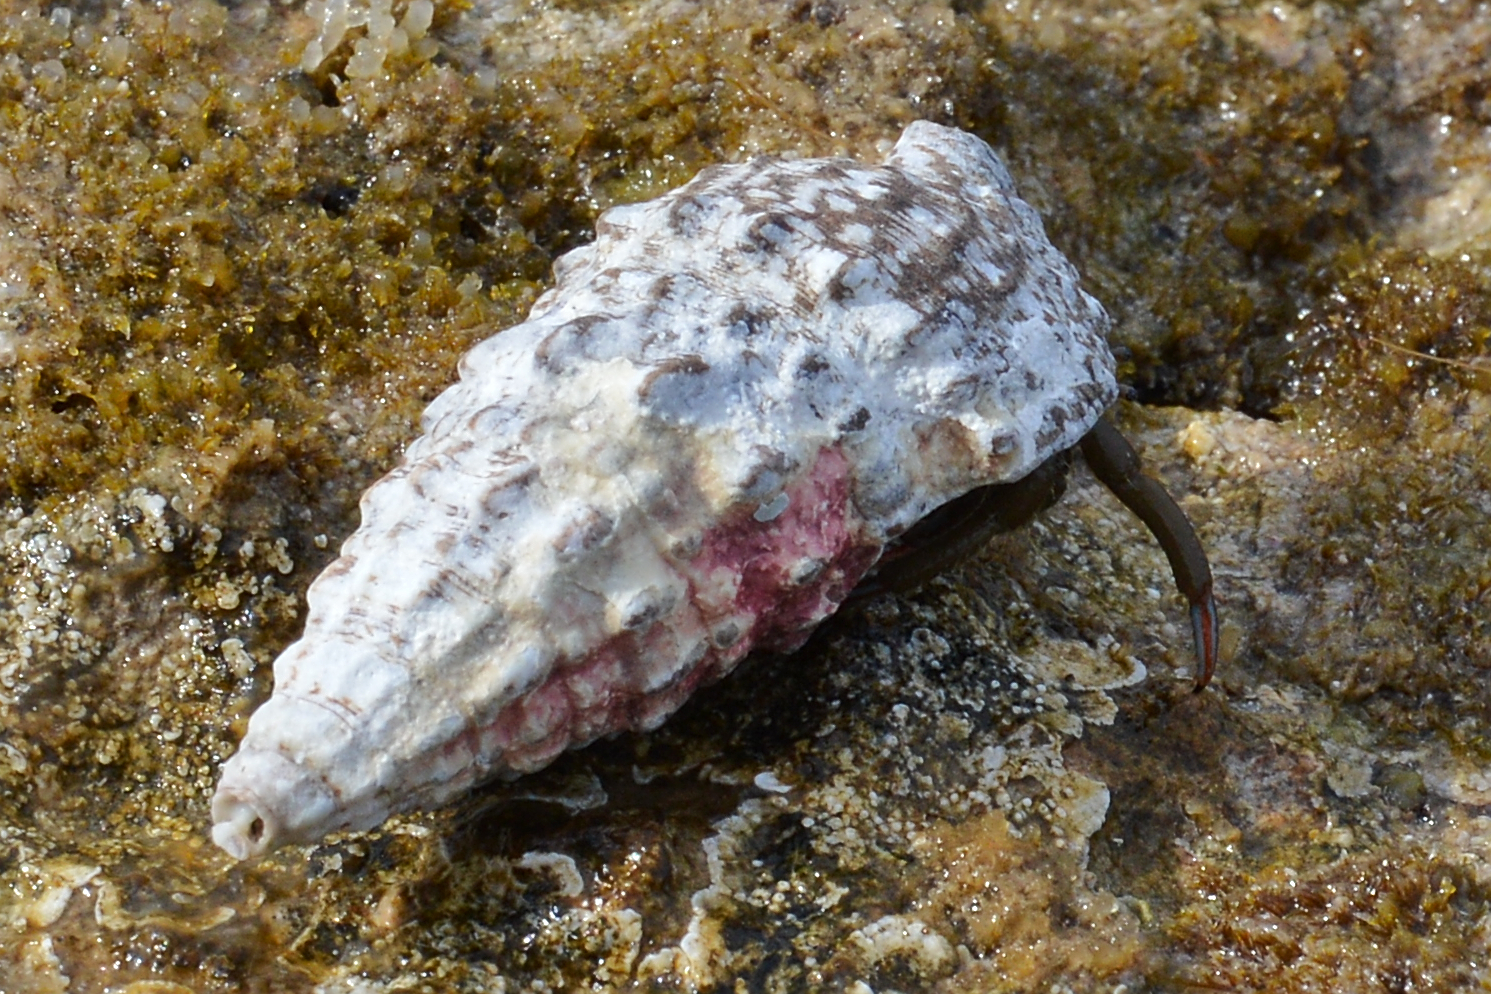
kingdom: Animalia
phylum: Arthropoda
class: Malacostraca
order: Decapoda
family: Diogenidae
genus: Clibanarius
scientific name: Clibanarius erythropus
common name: Hermit crab
